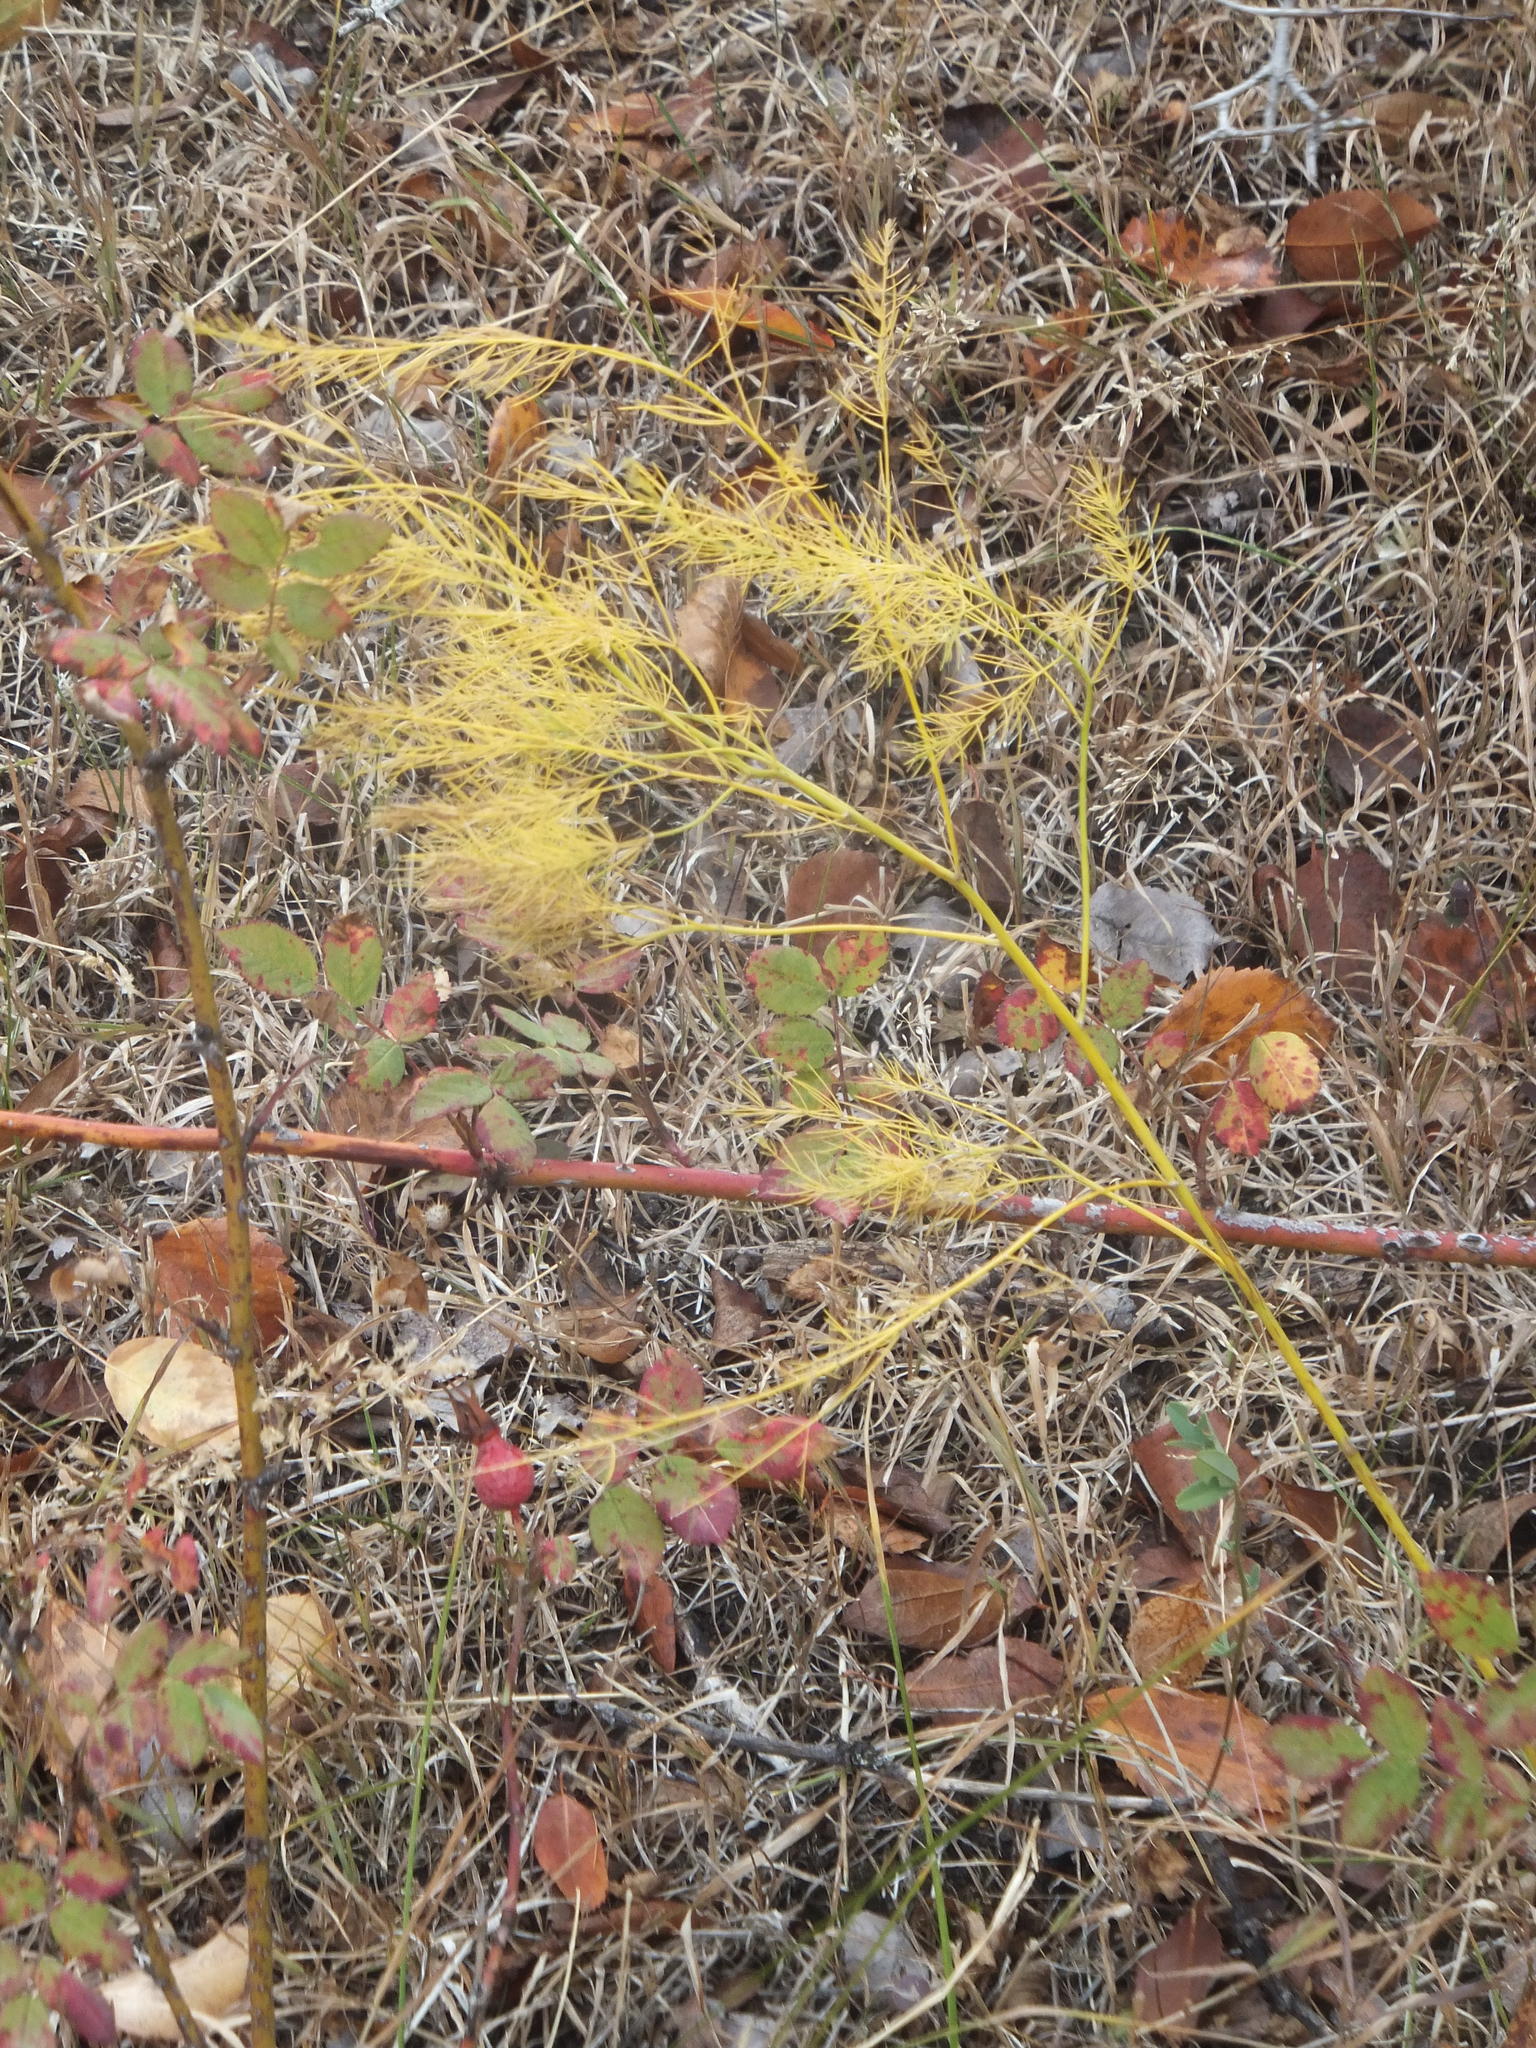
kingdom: Plantae
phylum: Tracheophyta
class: Liliopsida
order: Asparagales
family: Asparagaceae
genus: Asparagus
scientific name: Asparagus officinalis
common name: Garden asparagus
